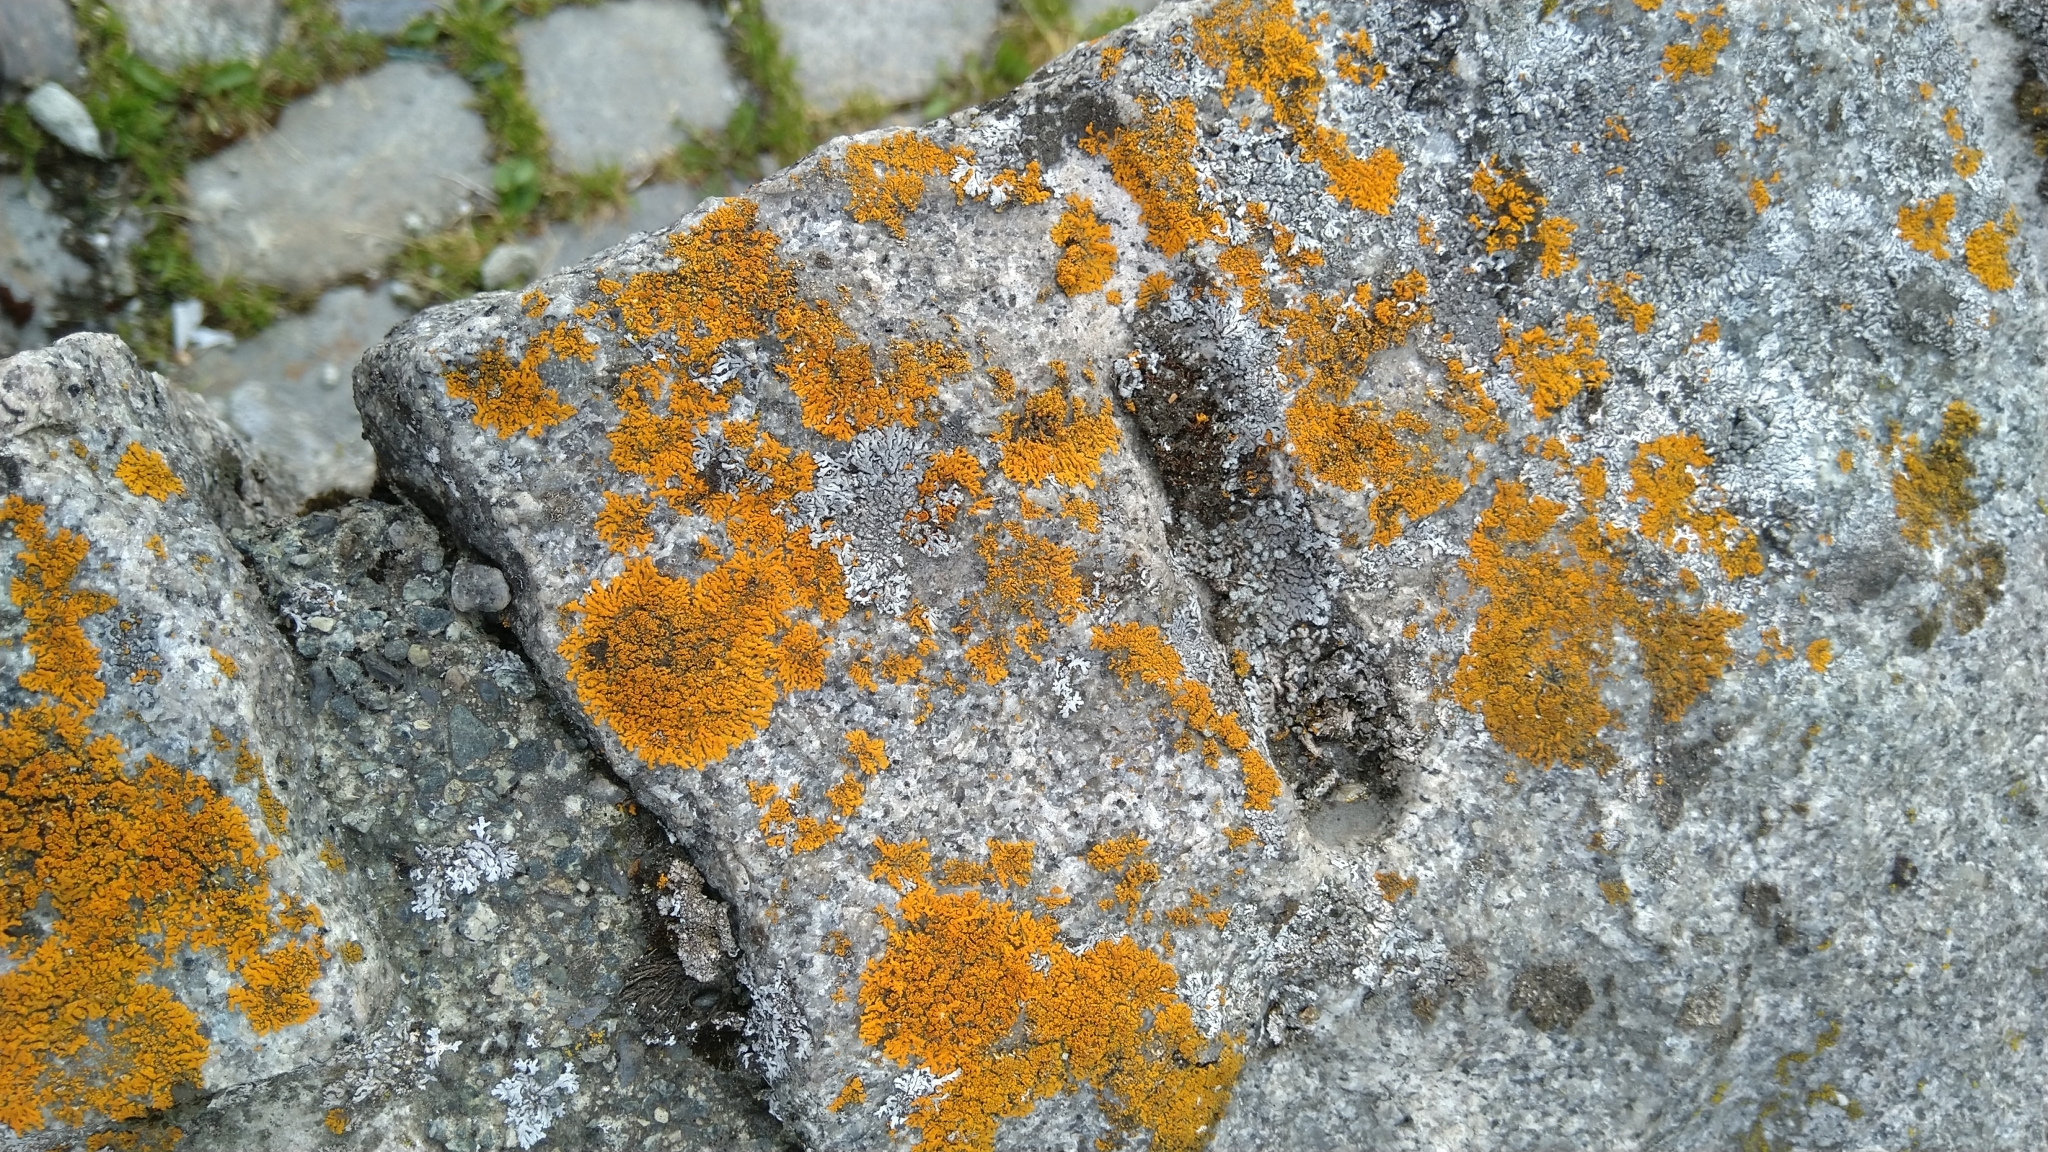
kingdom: Fungi
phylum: Ascomycota
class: Lecanoromycetes
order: Teloschistales
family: Teloschistaceae
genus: Xanthoria
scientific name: Xanthoria elegans
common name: Elegant sunburst lichen
